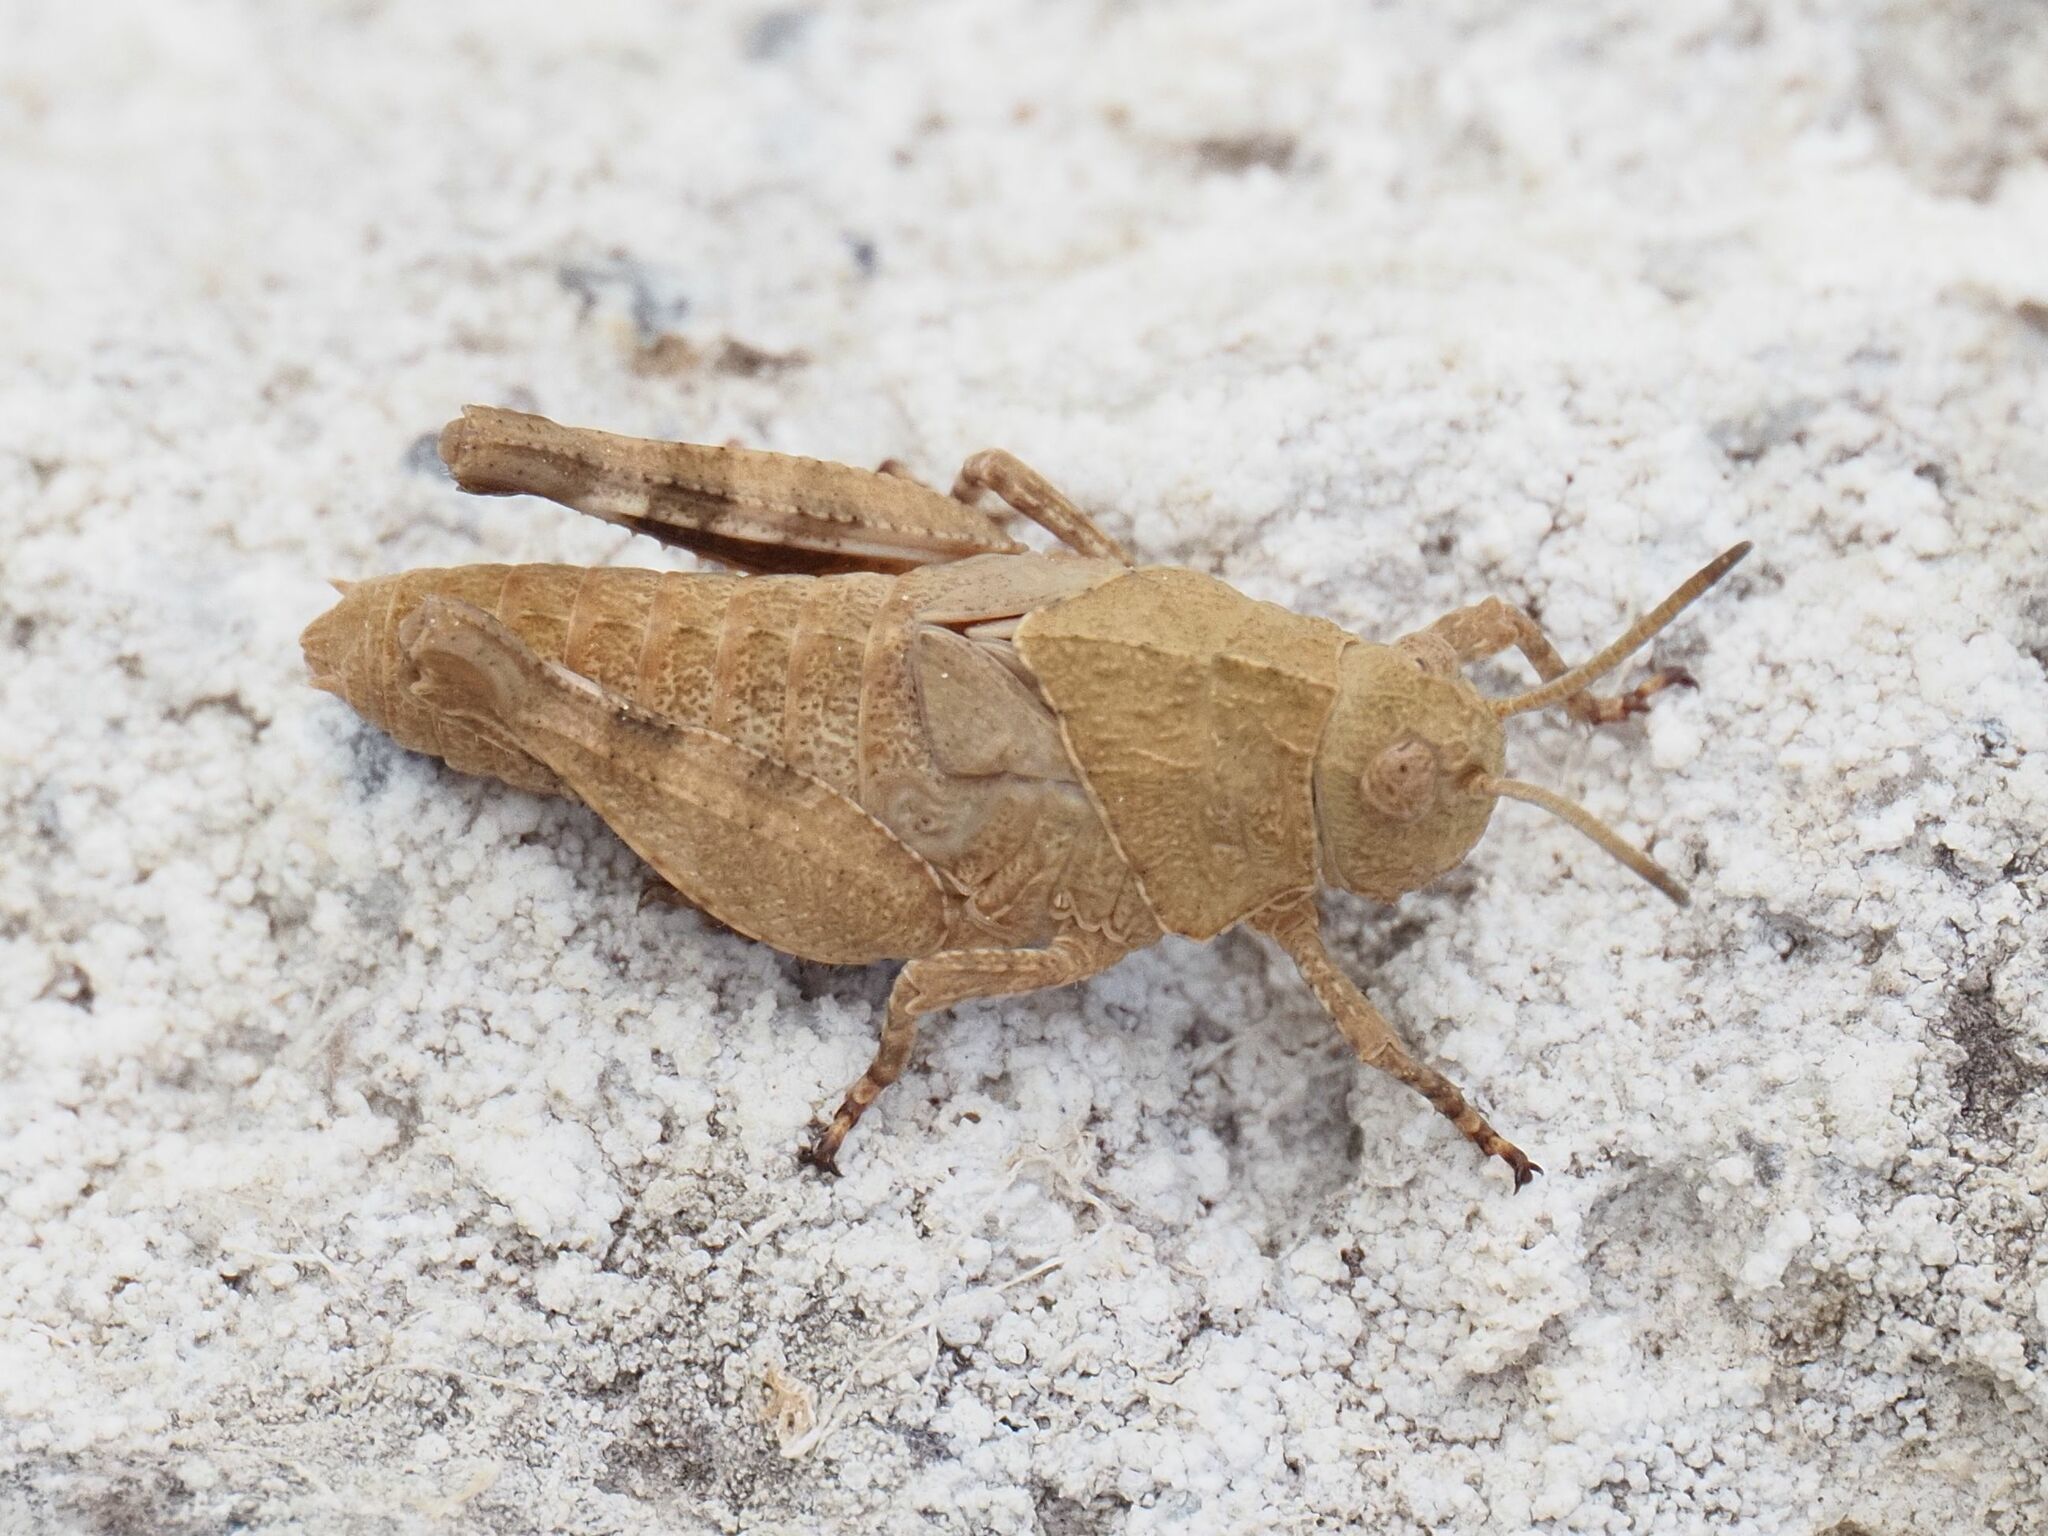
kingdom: Animalia
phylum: Arthropoda
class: Insecta
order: Orthoptera
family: Acrididae
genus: Oedipoda
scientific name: Oedipoda caerulescens
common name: Blue-winged grasshopper
